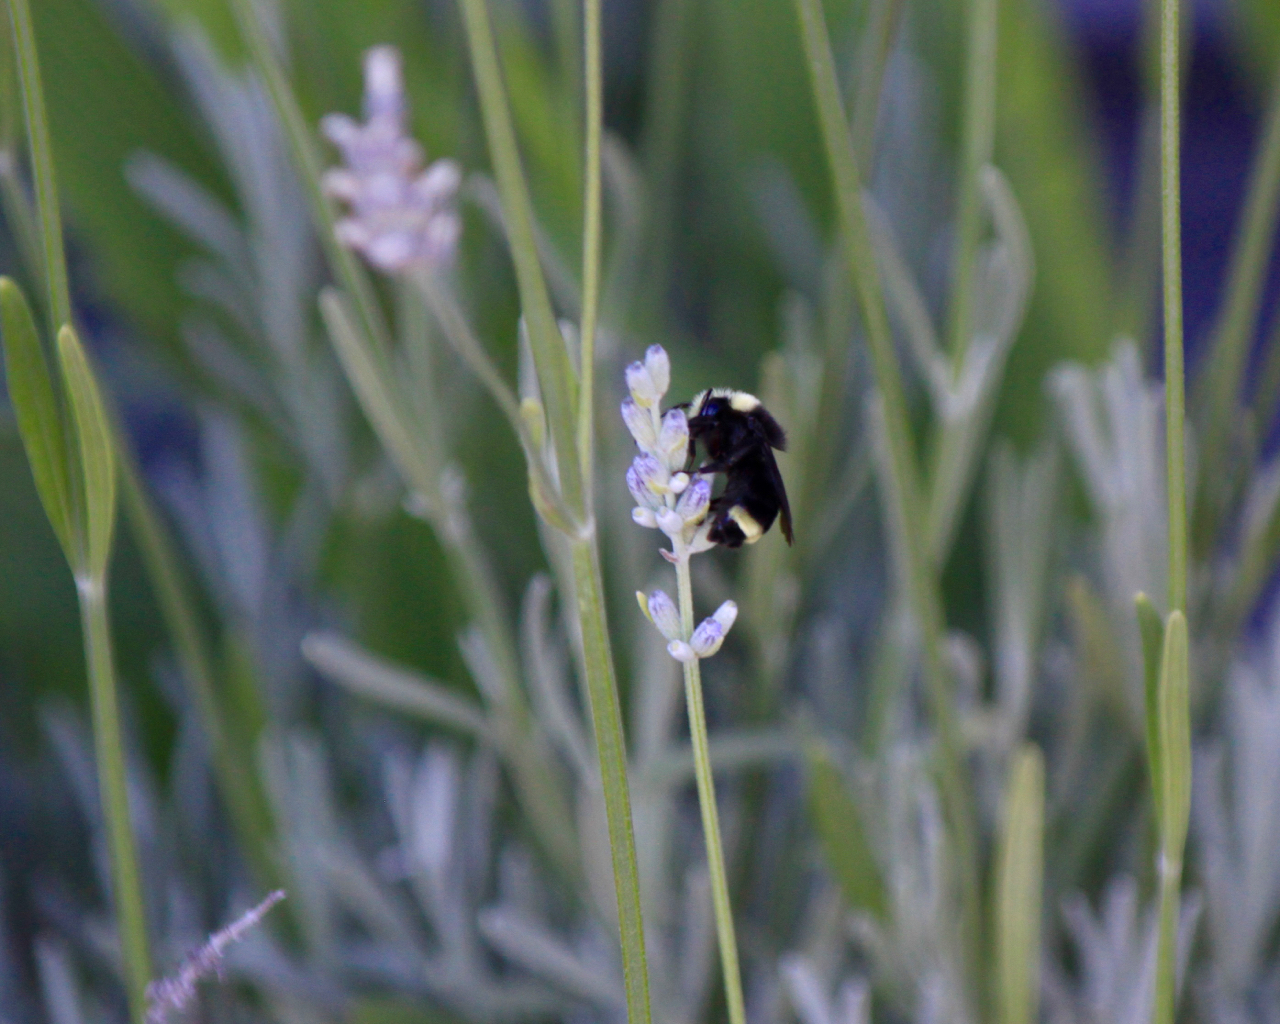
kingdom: Animalia
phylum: Arthropoda
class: Insecta
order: Hymenoptera
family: Apidae
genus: Bombus
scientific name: Bombus vosnesenskii
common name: Vosnesensky bumble bee
